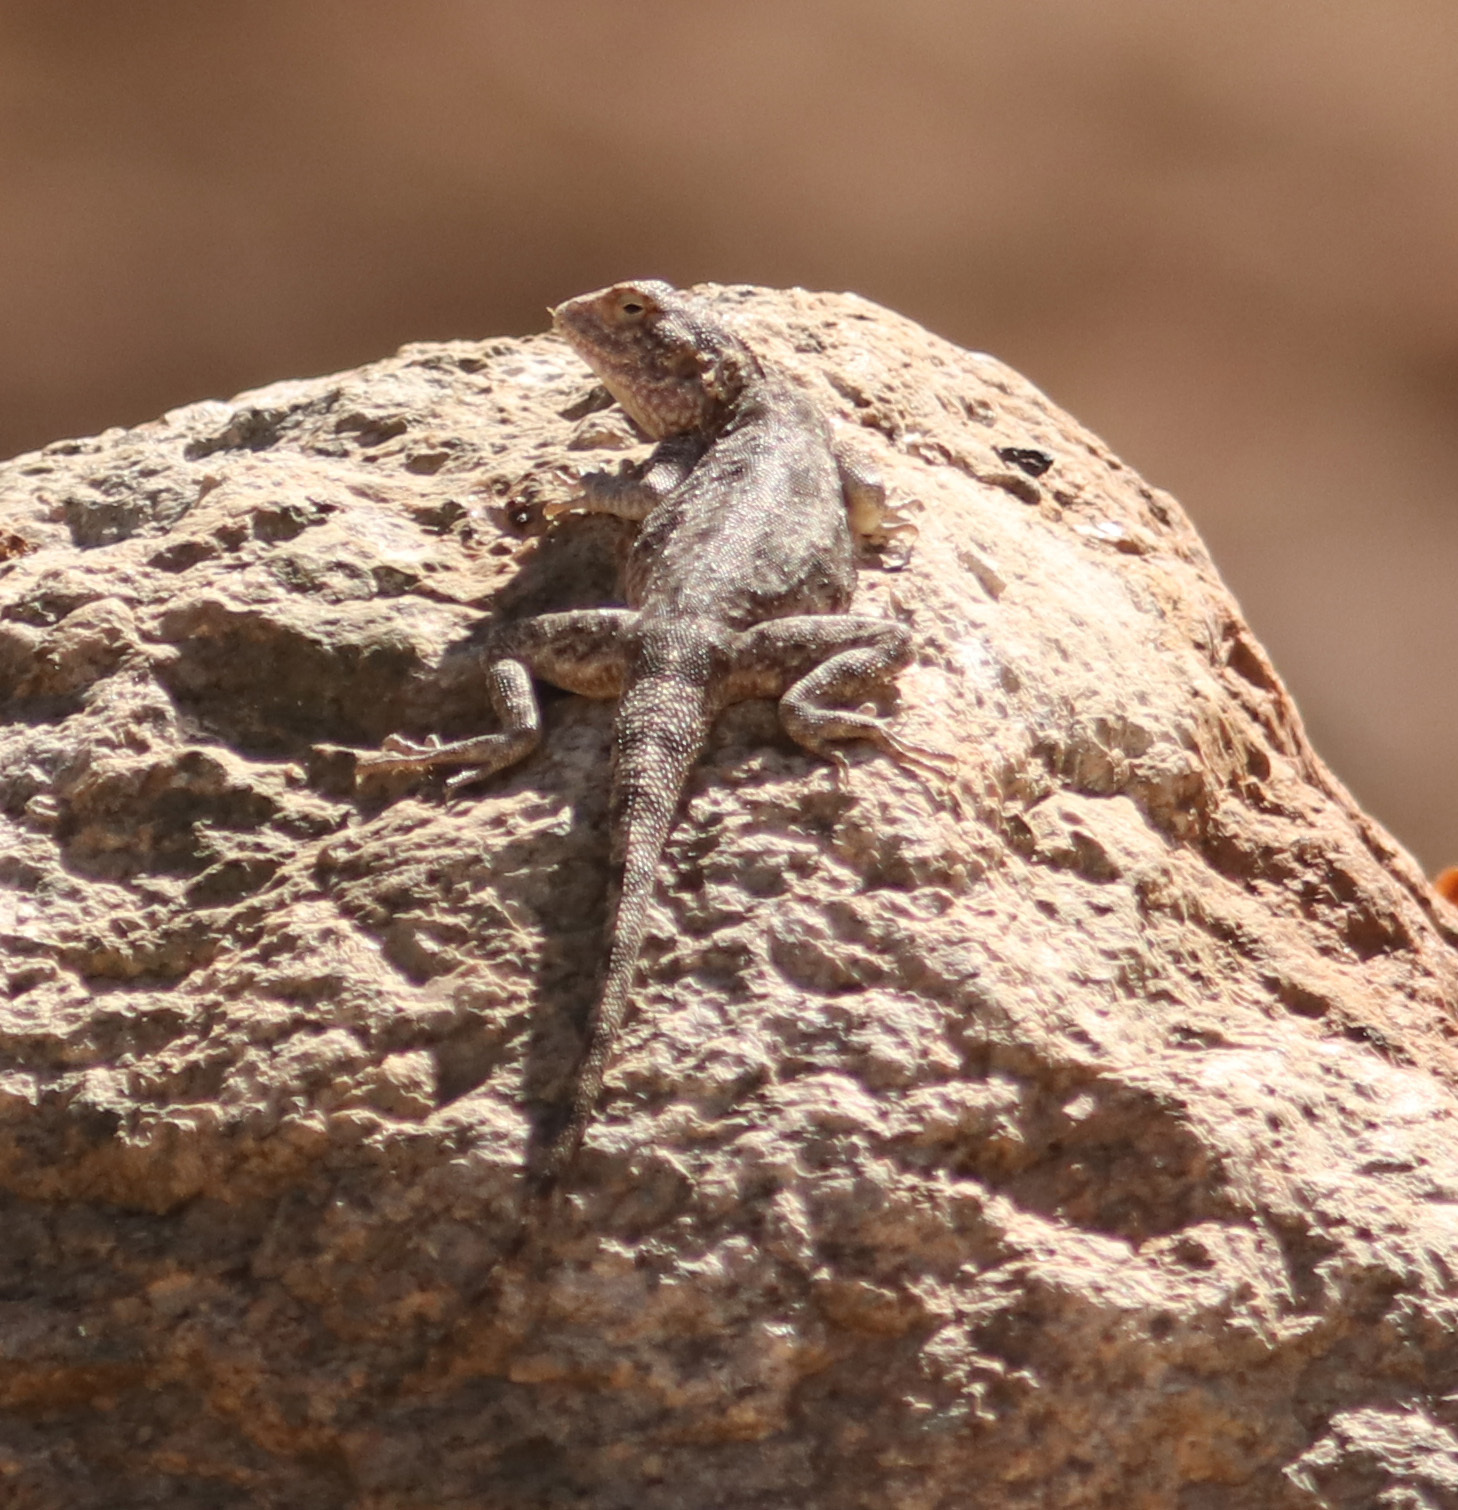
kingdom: Animalia
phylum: Chordata
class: Squamata
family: Agamidae
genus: Agama
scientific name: Agama atra
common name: Southern african rock agama
